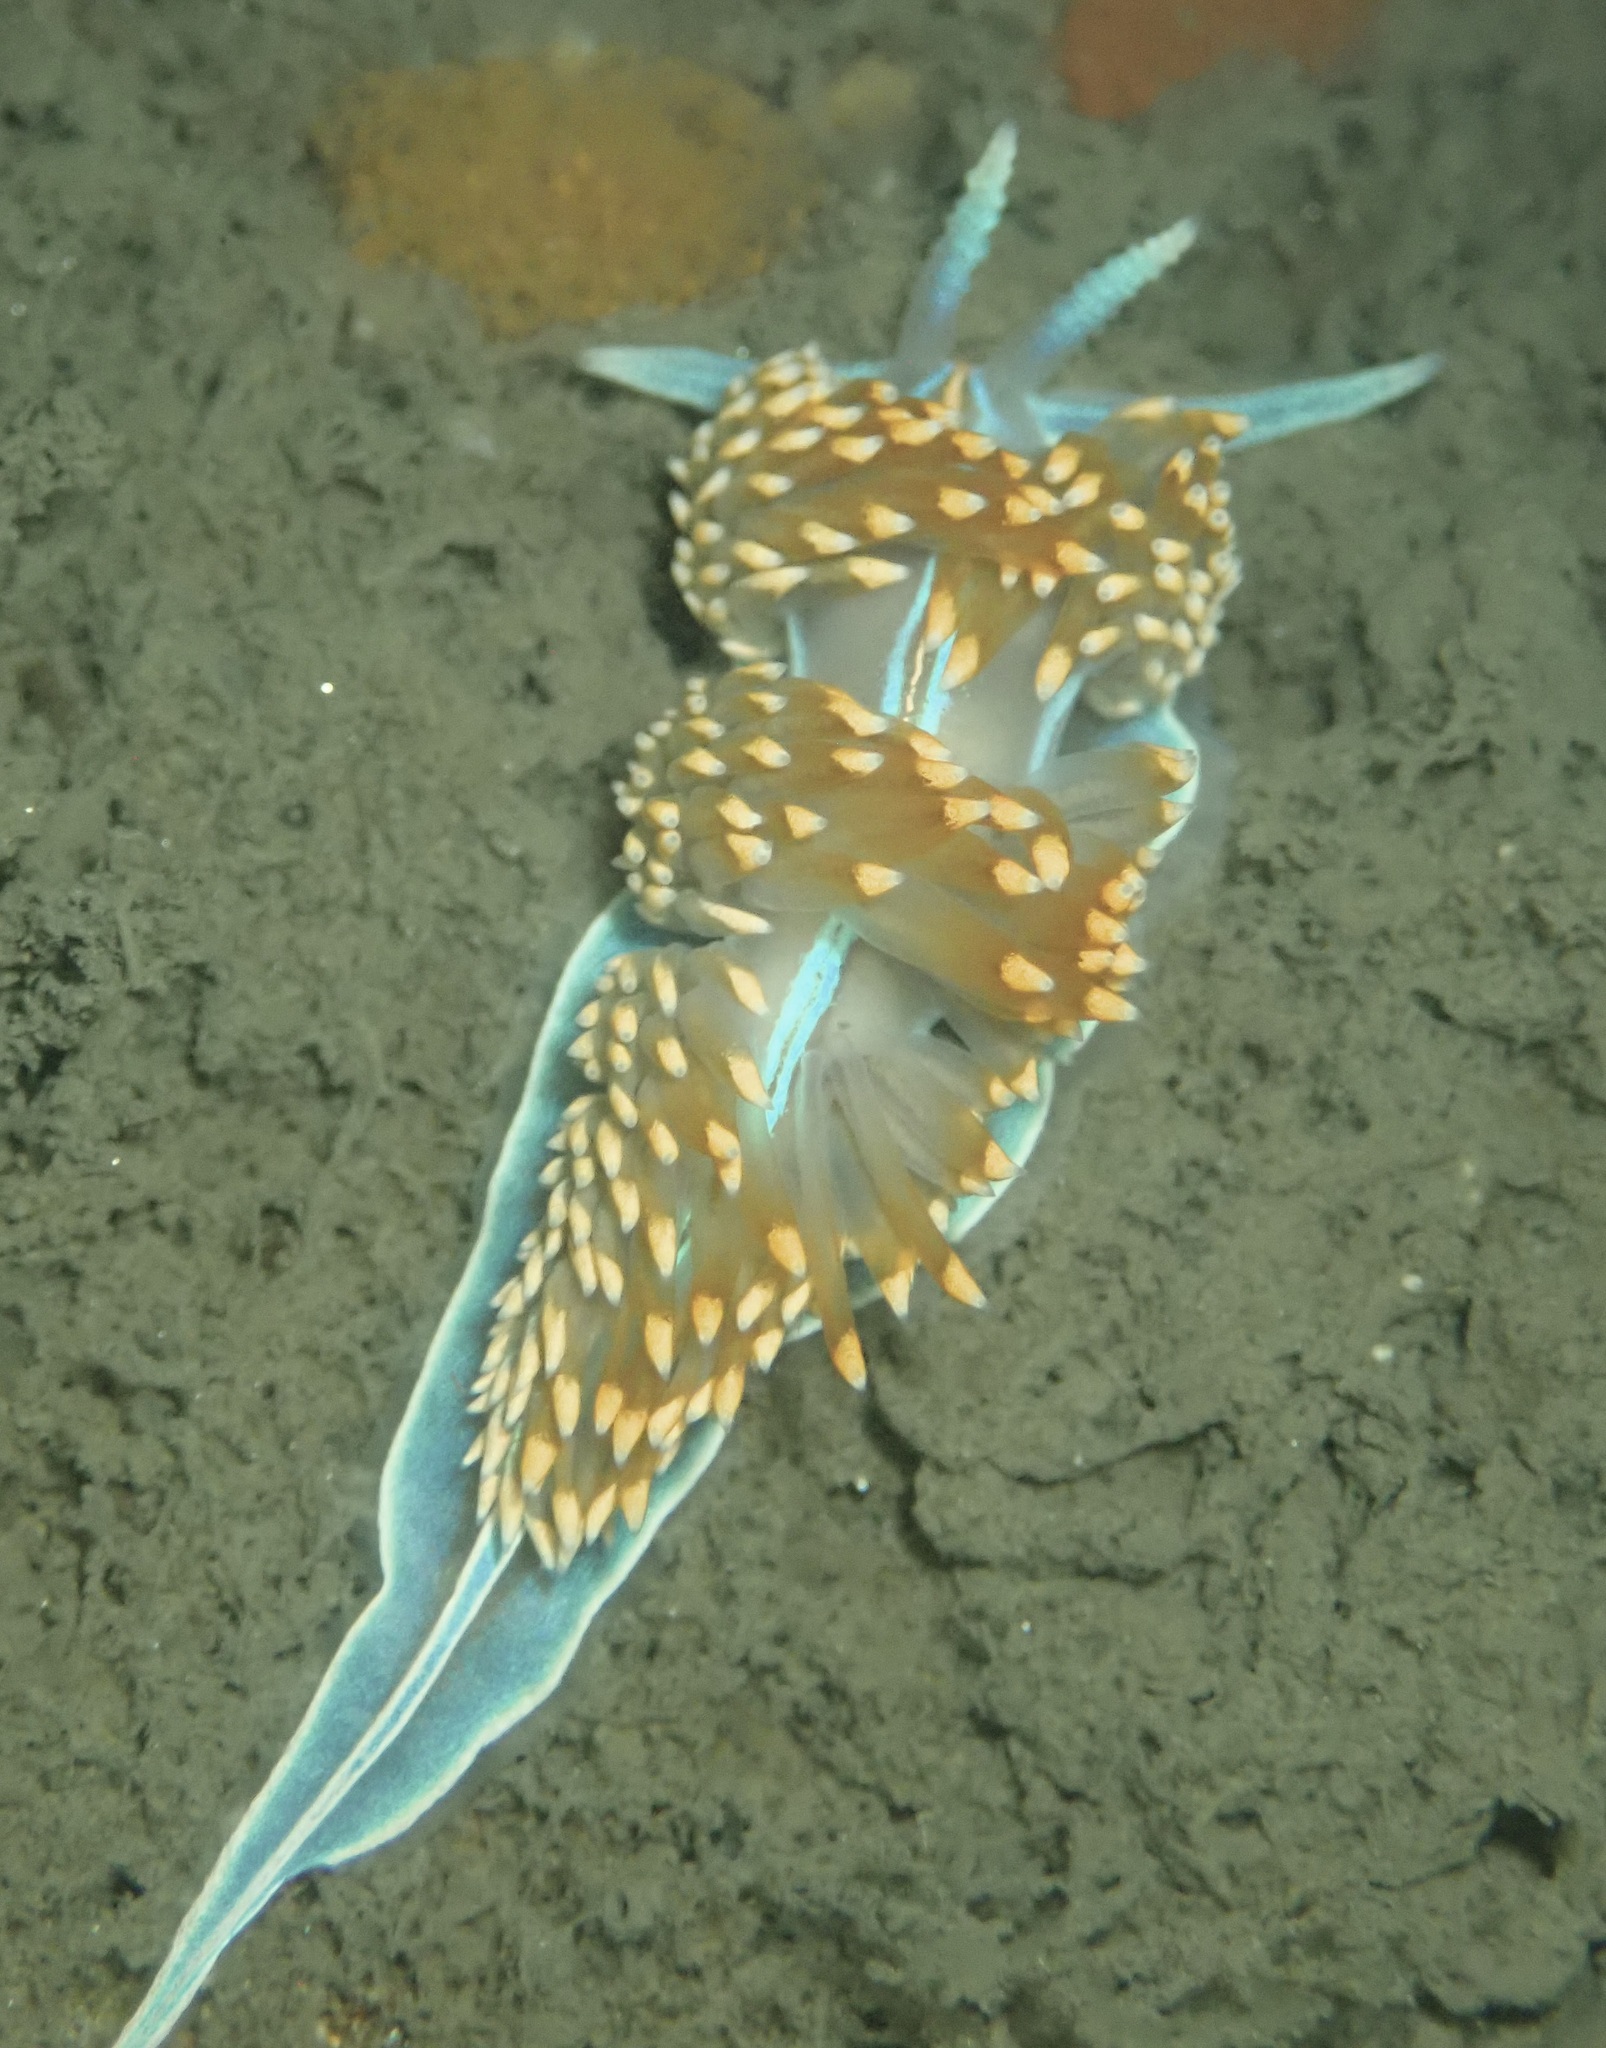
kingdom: Animalia
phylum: Mollusca
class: Gastropoda
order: Nudibranchia
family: Myrrhinidae
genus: Hermissenda
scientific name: Hermissenda opalescens
